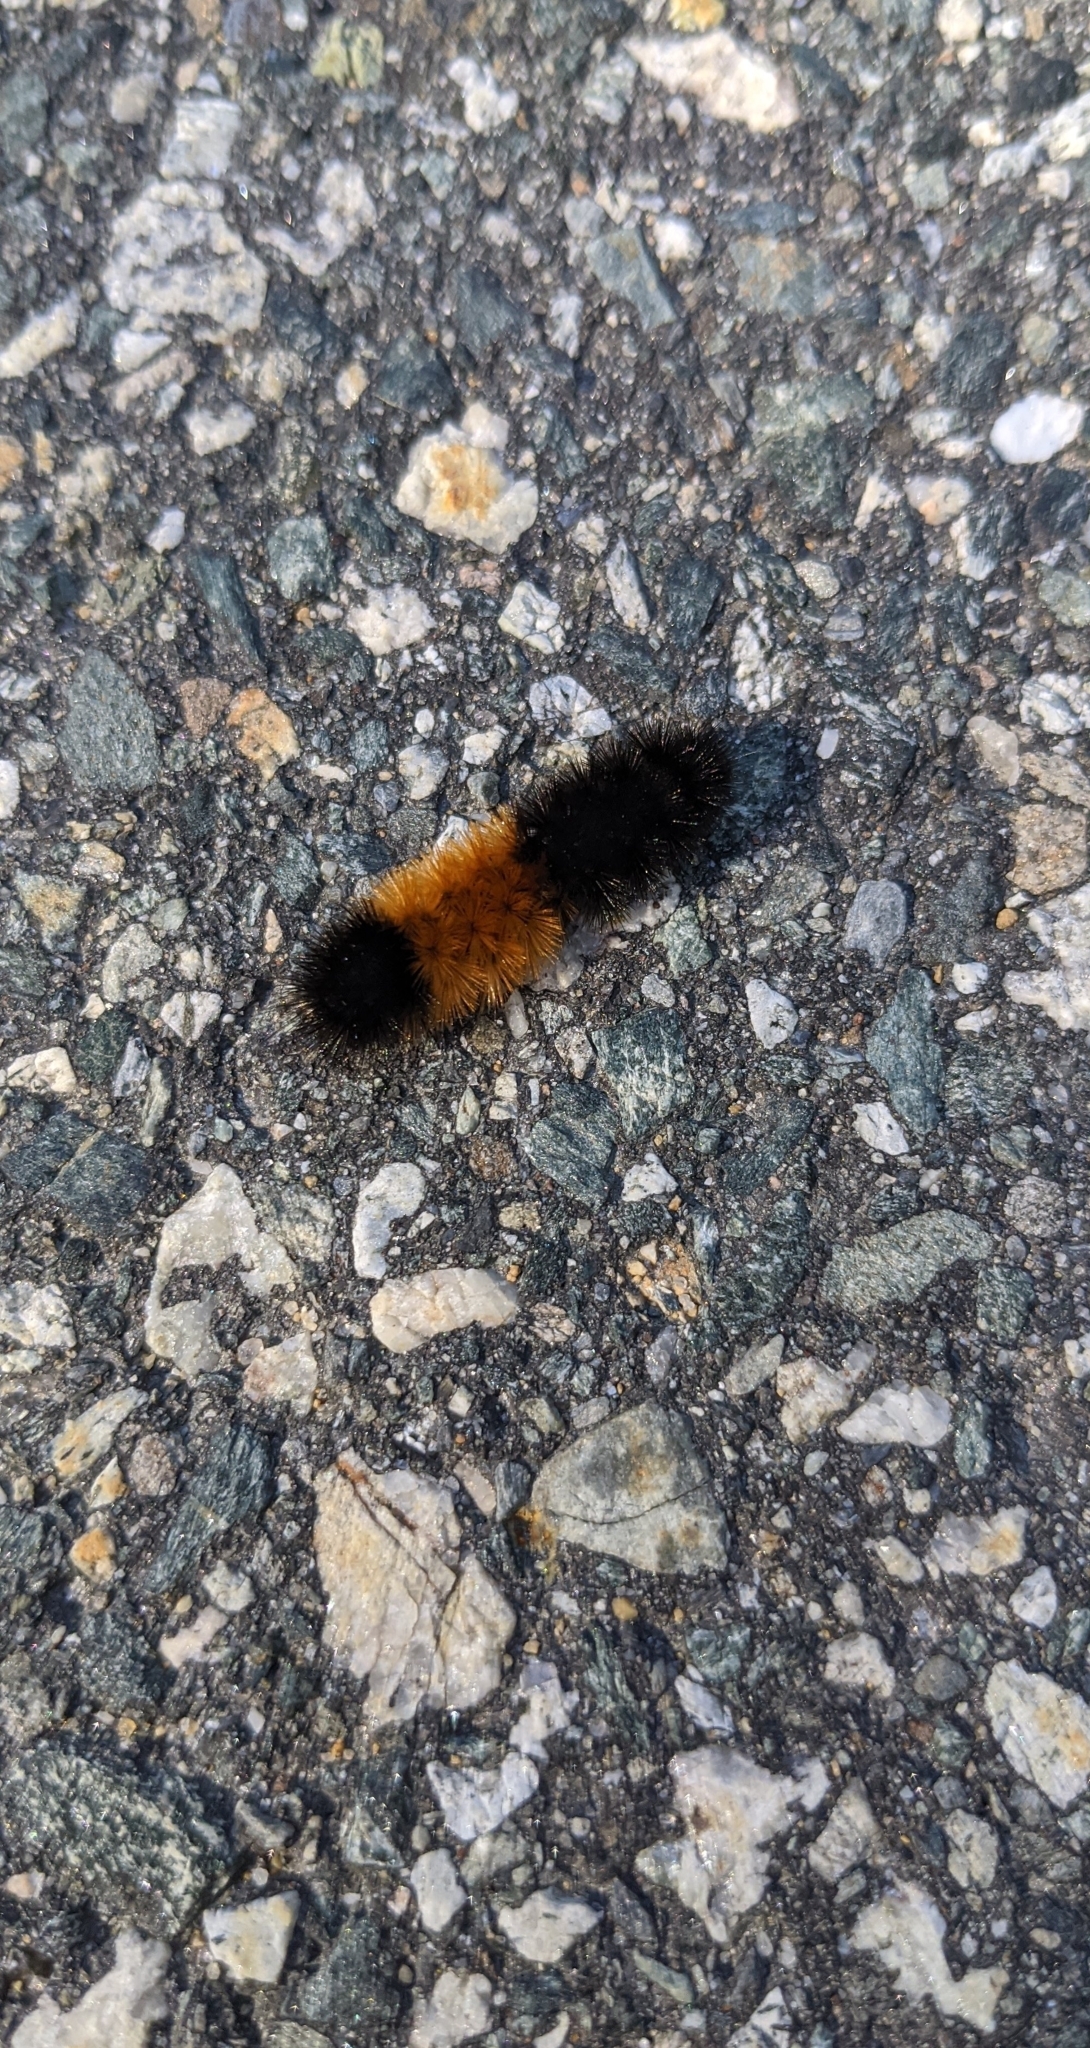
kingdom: Animalia
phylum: Arthropoda
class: Insecta
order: Lepidoptera
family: Erebidae
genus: Pyrrharctia
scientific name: Pyrrharctia isabella
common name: Isabella tiger moth
